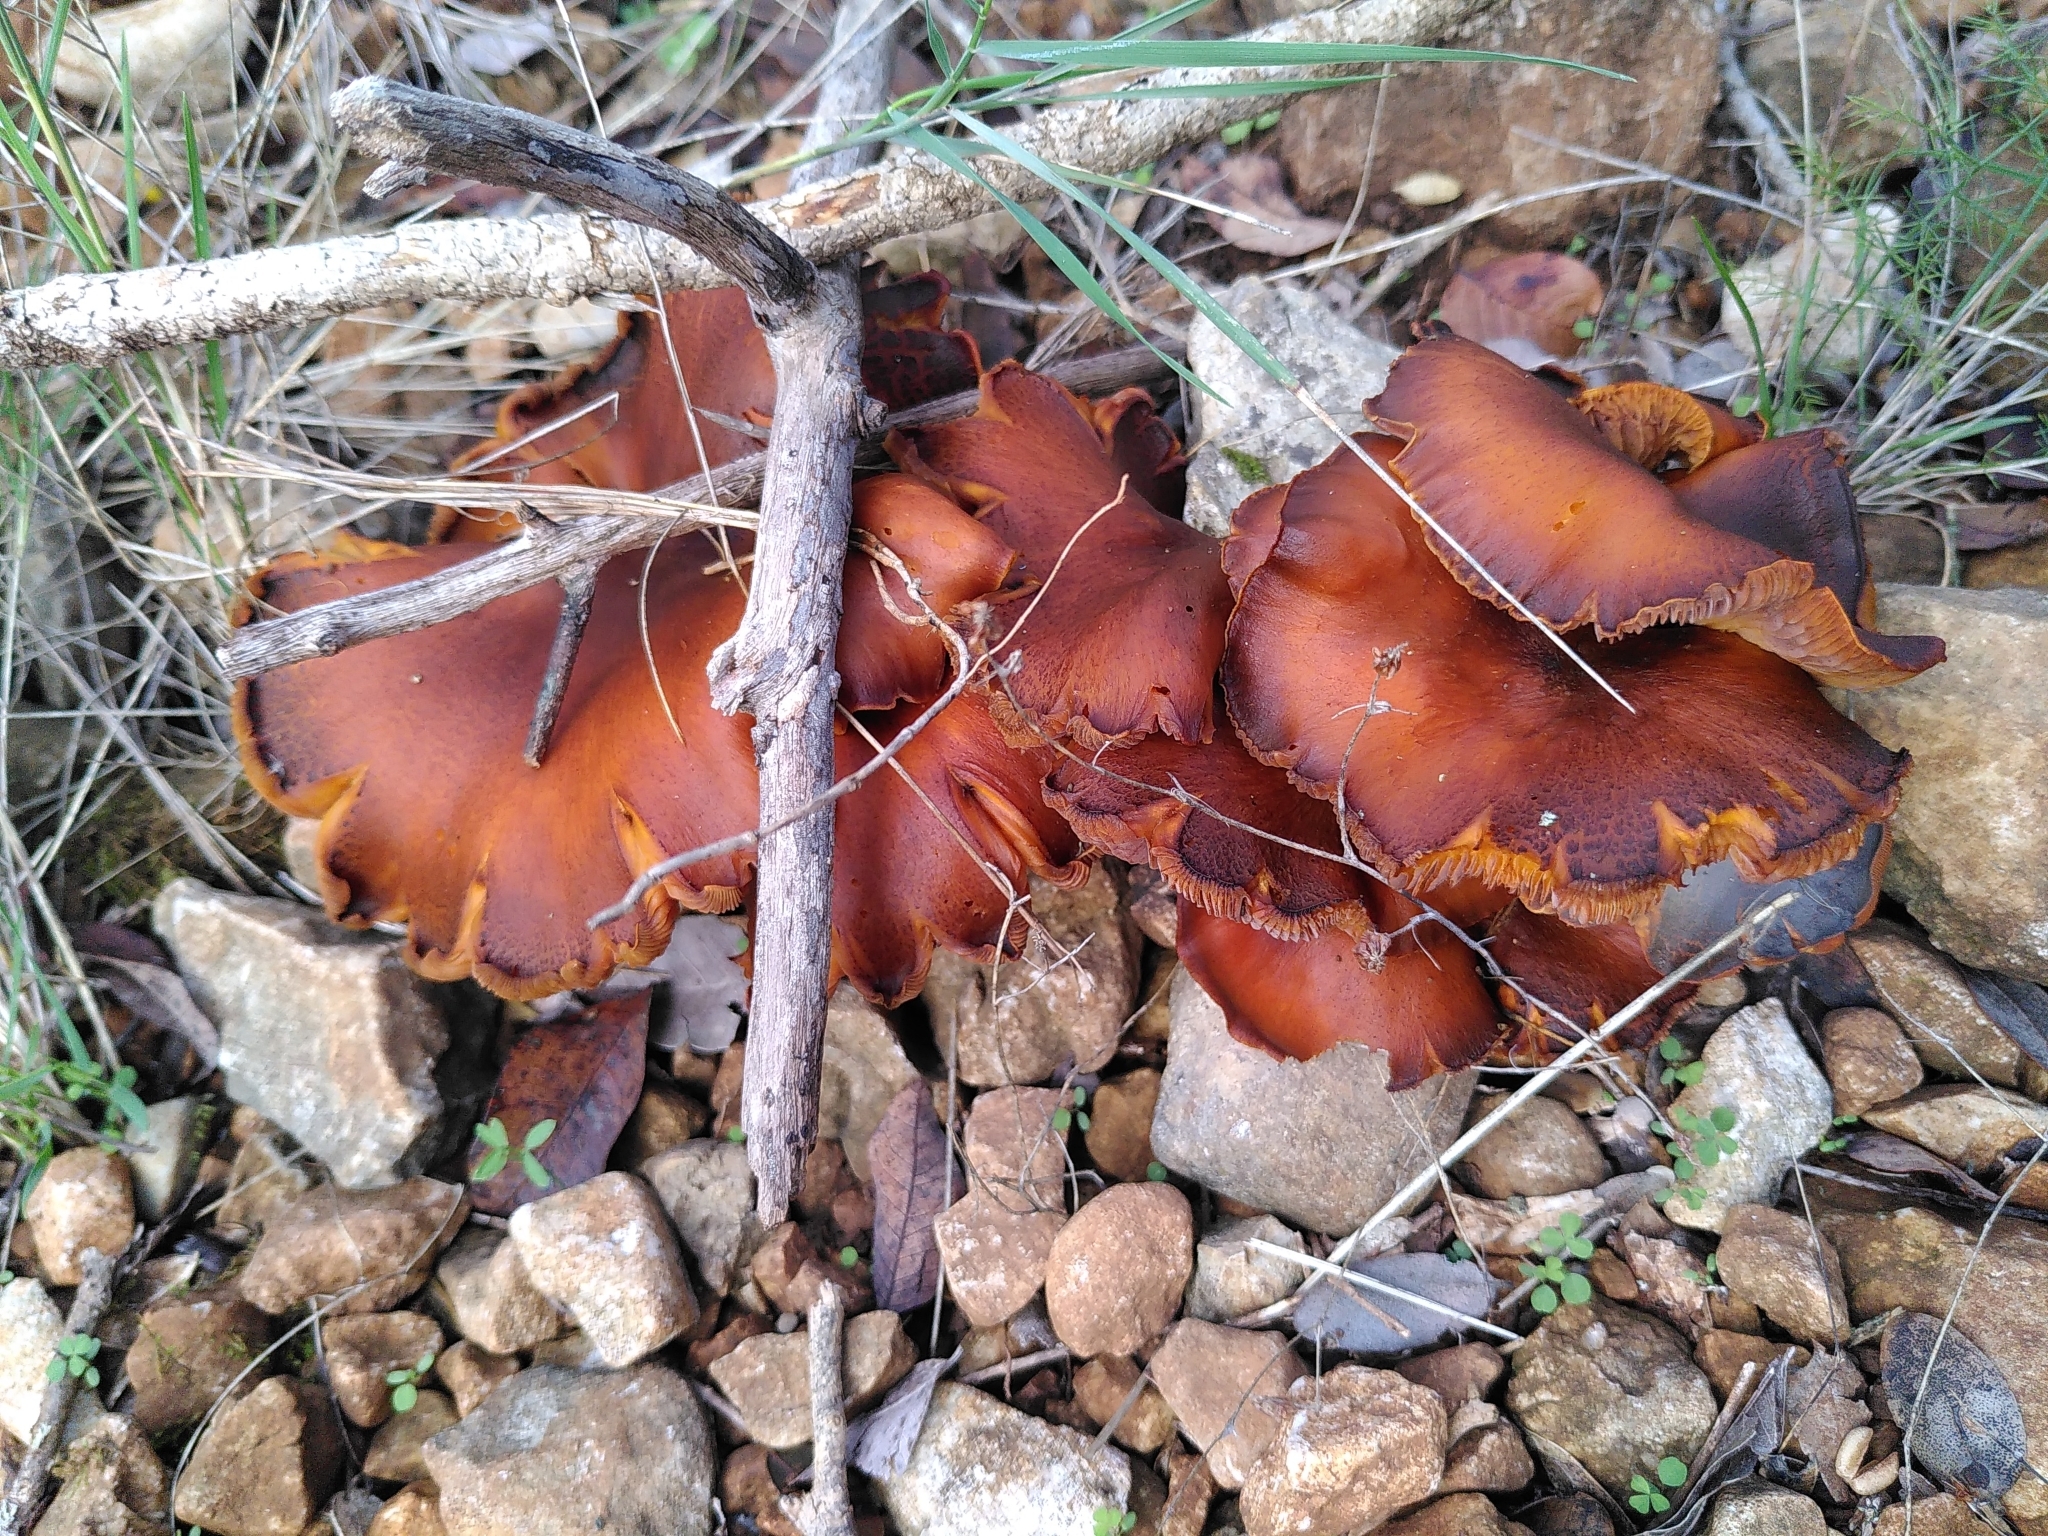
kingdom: Fungi
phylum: Basidiomycota
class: Agaricomycetes
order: Agaricales
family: Omphalotaceae
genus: Omphalotus
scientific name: Omphalotus olearius
